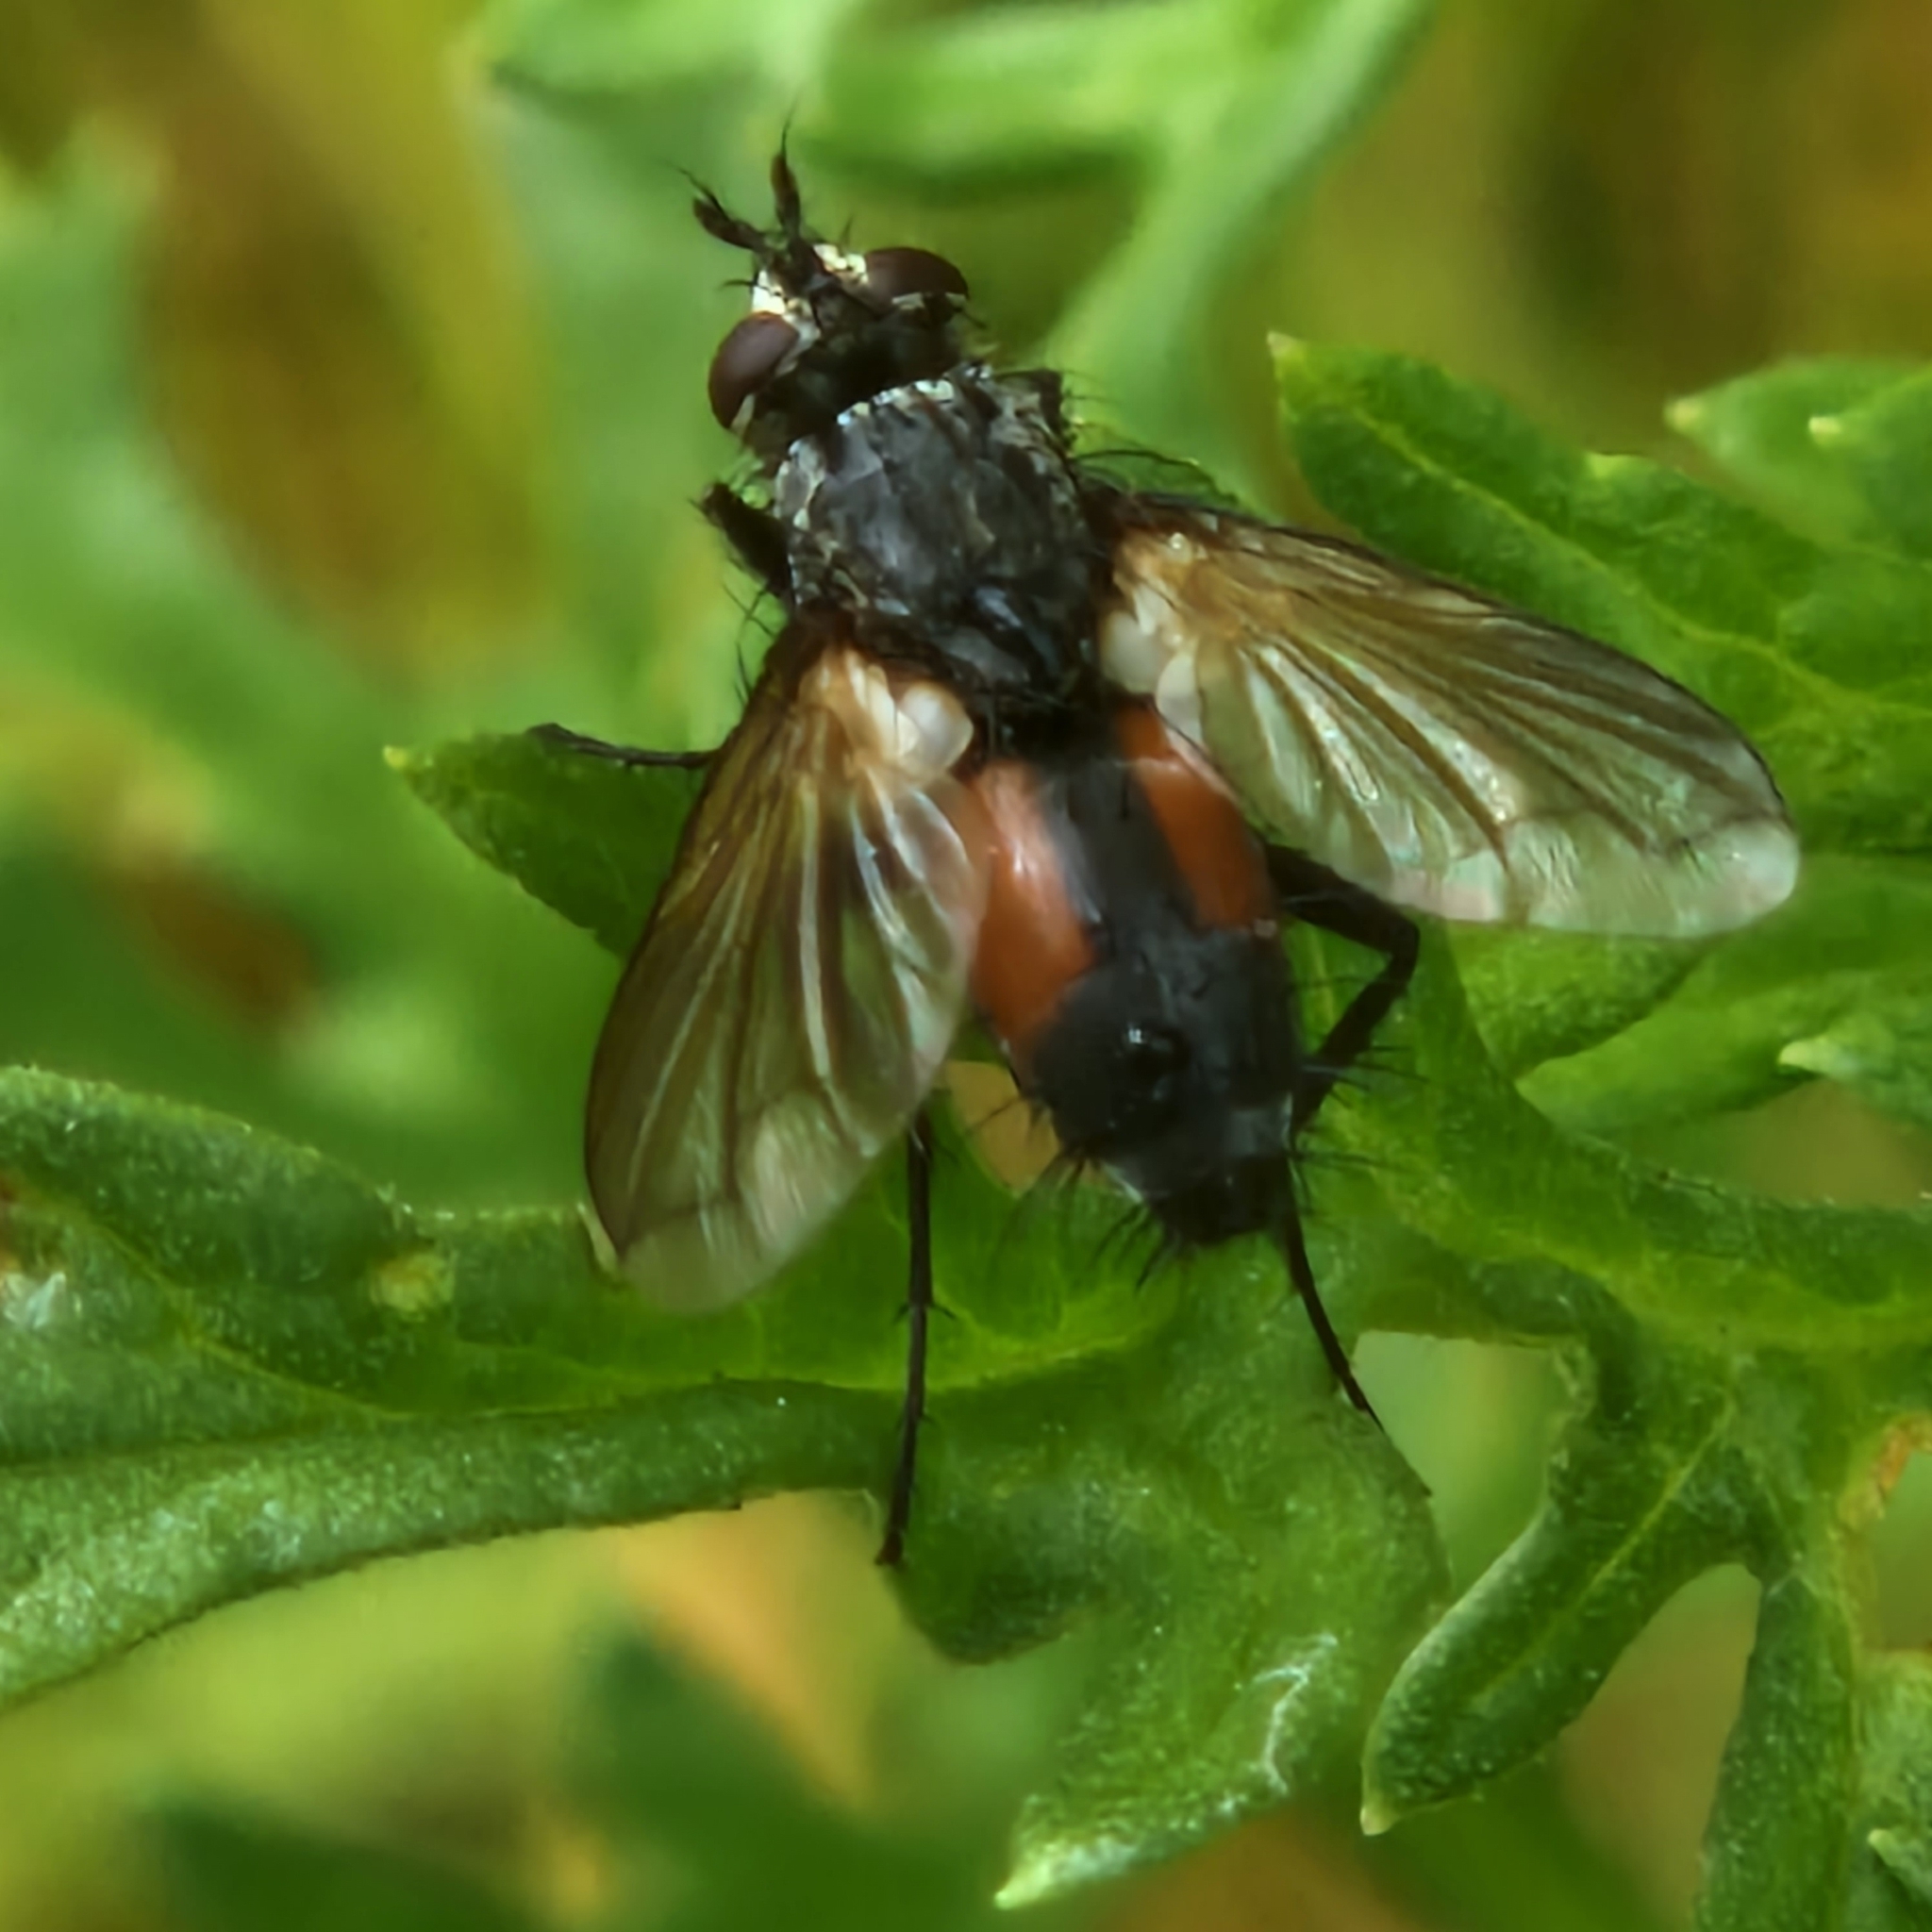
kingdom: Animalia
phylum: Arthropoda
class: Insecta
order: Diptera
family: Tachinidae
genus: Eriothrix
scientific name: Eriothrix rufomaculatus
